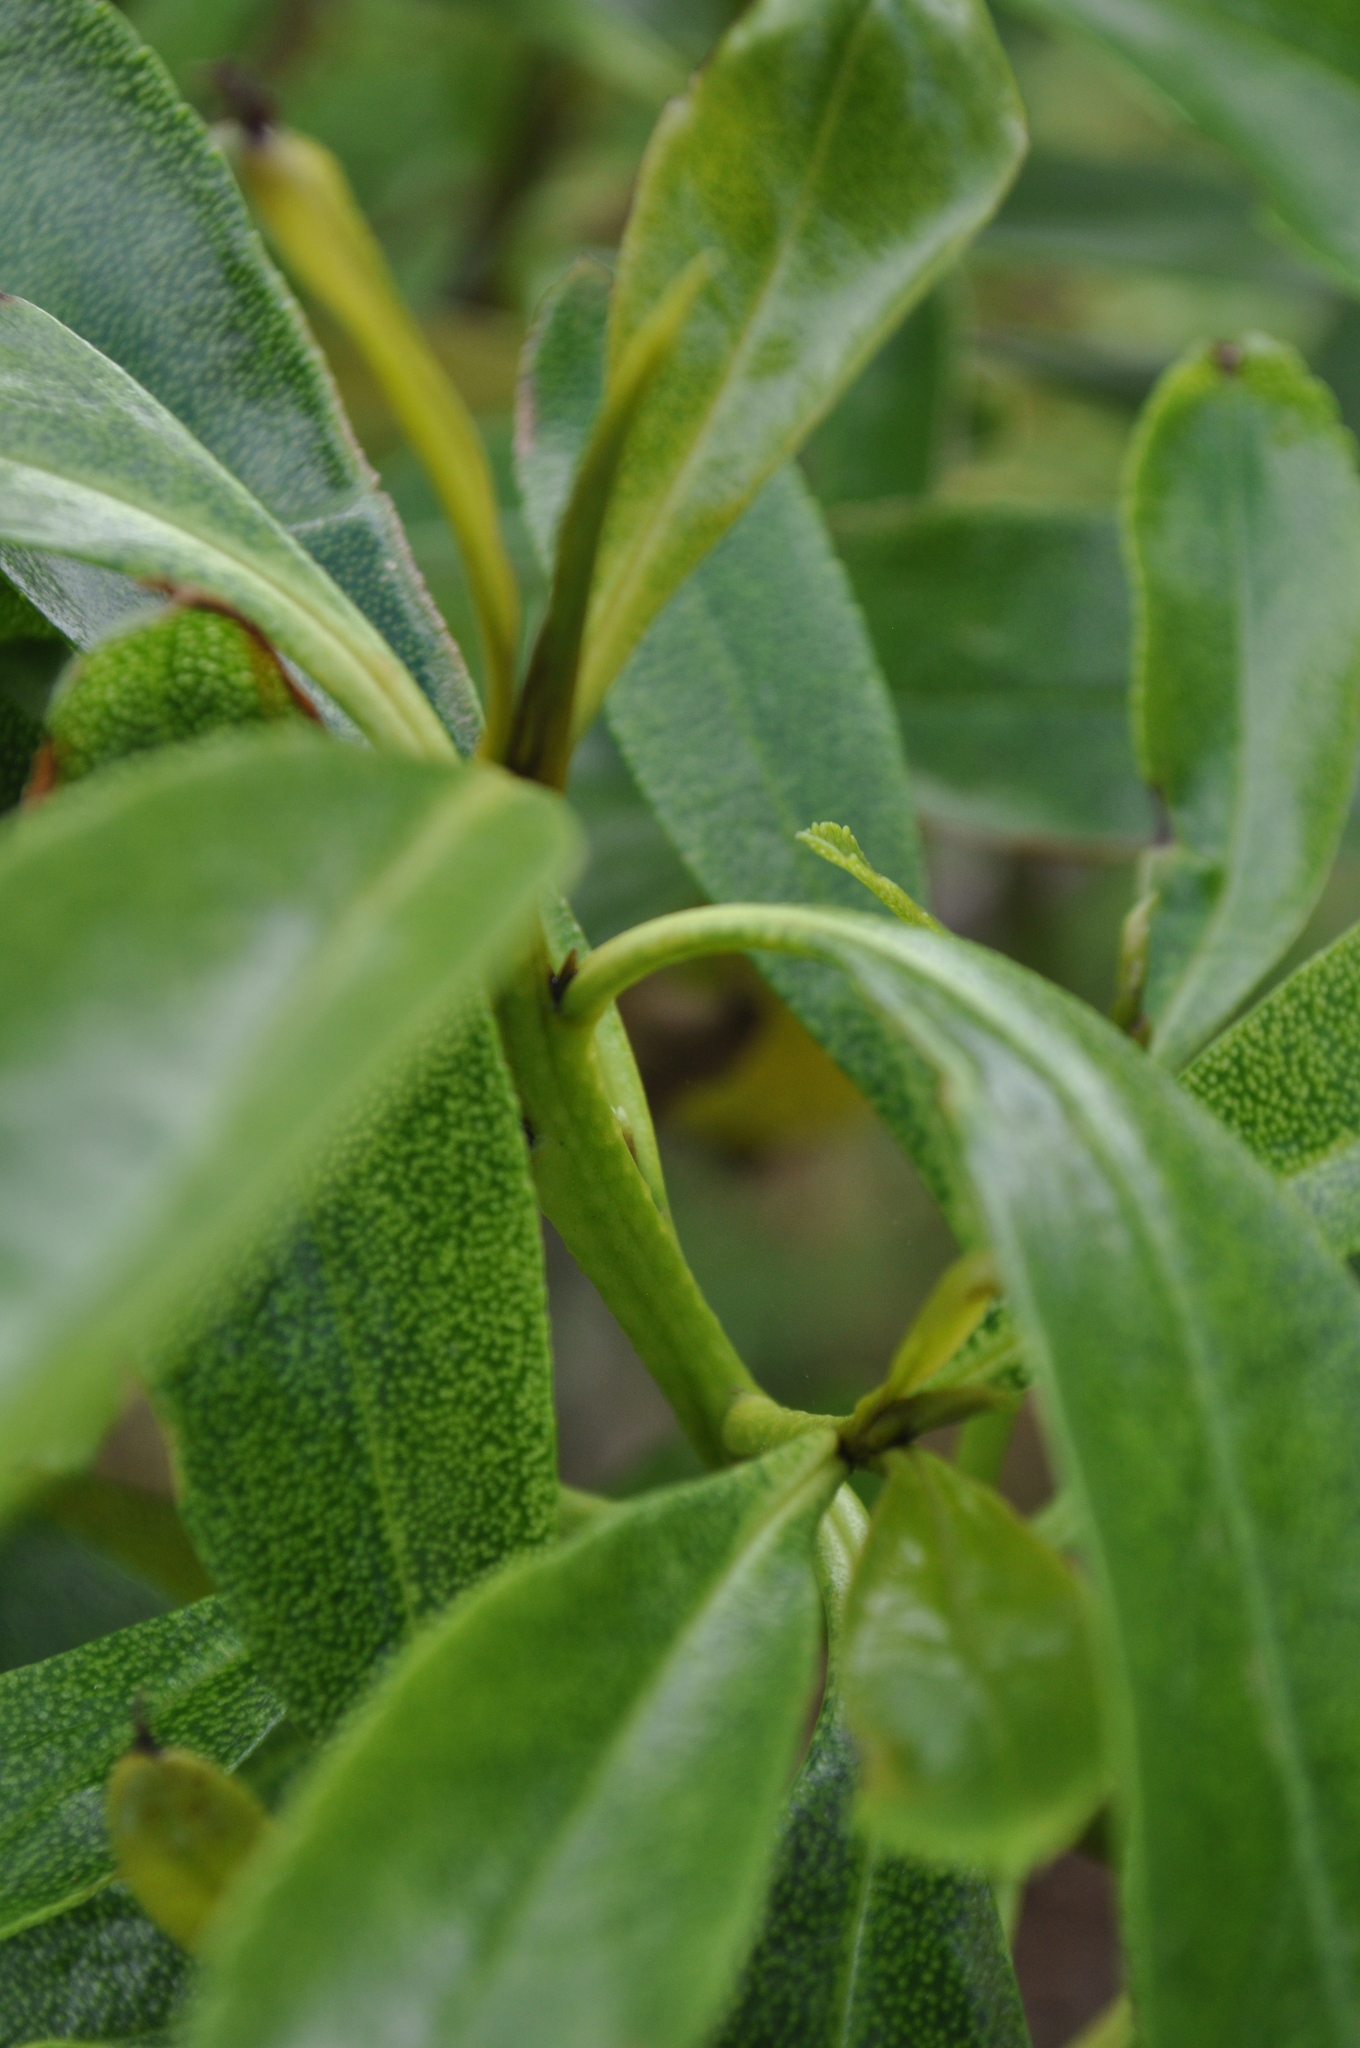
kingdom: Plantae
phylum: Tracheophyta
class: Magnoliopsida
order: Lamiales
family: Scrophulariaceae
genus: Myoporum
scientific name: Myoporum laetum
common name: Ngaio tree
